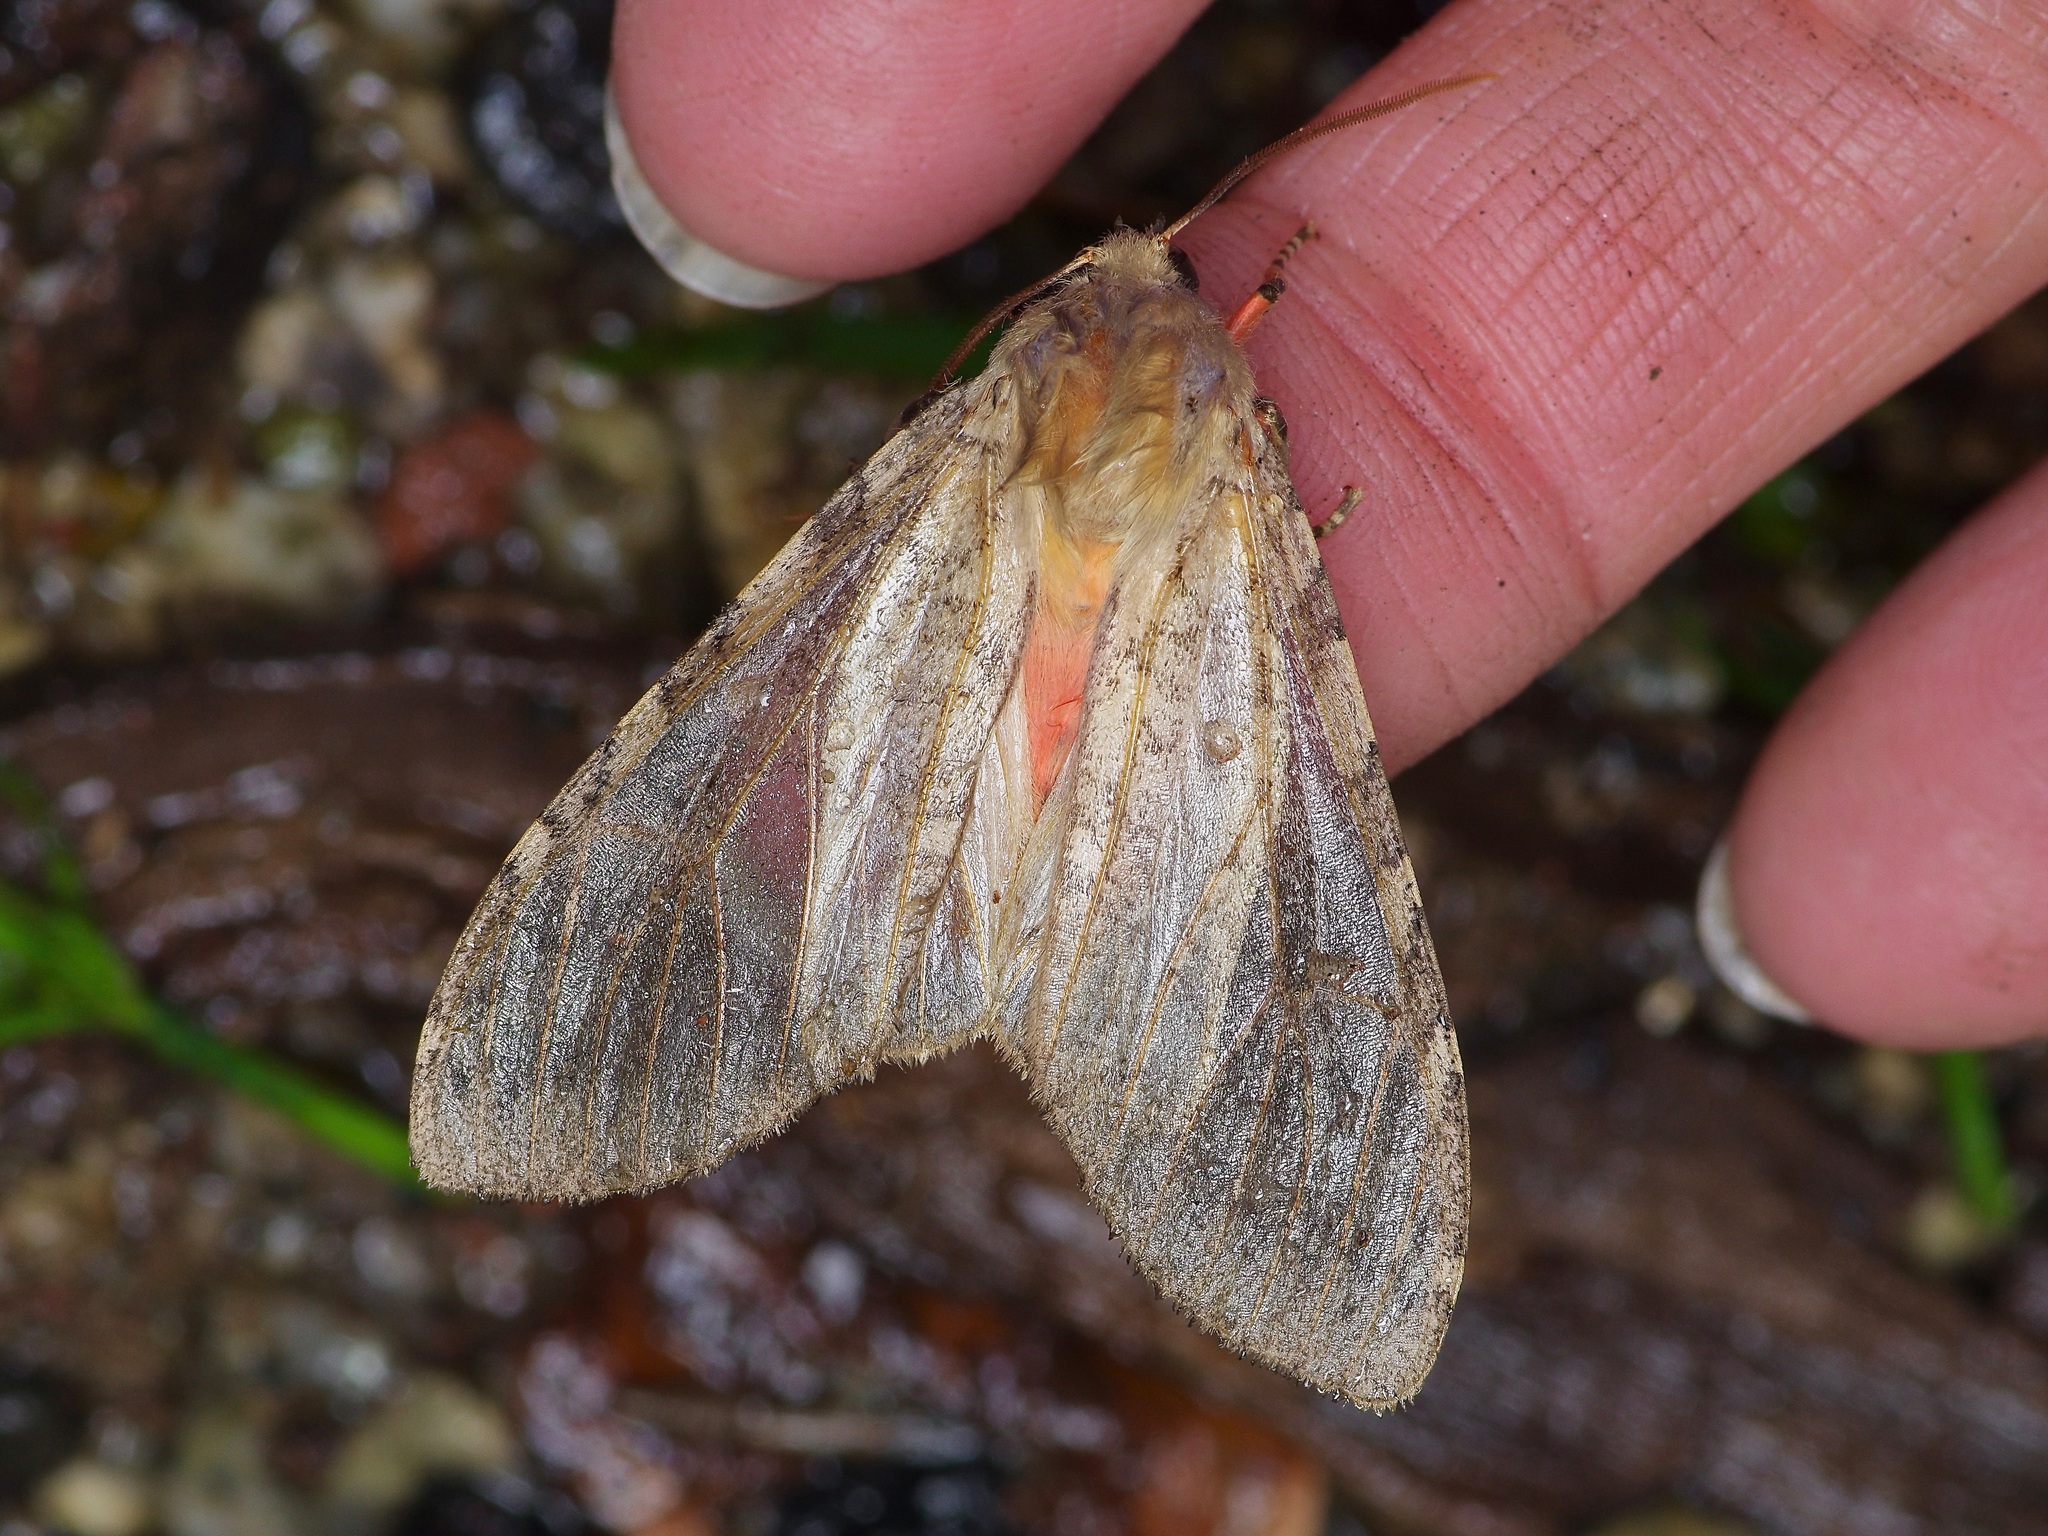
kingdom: Animalia
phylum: Arthropoda
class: Insecta
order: Lepidoptera
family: Erebidae
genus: Hemihyalea
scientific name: Hemihyalea labecula
